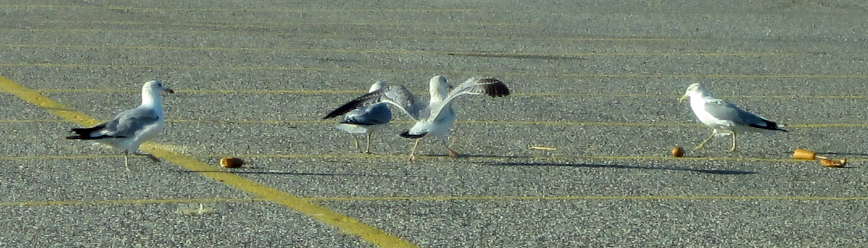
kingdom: Animalia
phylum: Chordata
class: Aves
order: Charadriiformes
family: Laridae
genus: Larus
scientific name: Larus delawarensis
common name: Ring-billed gull
